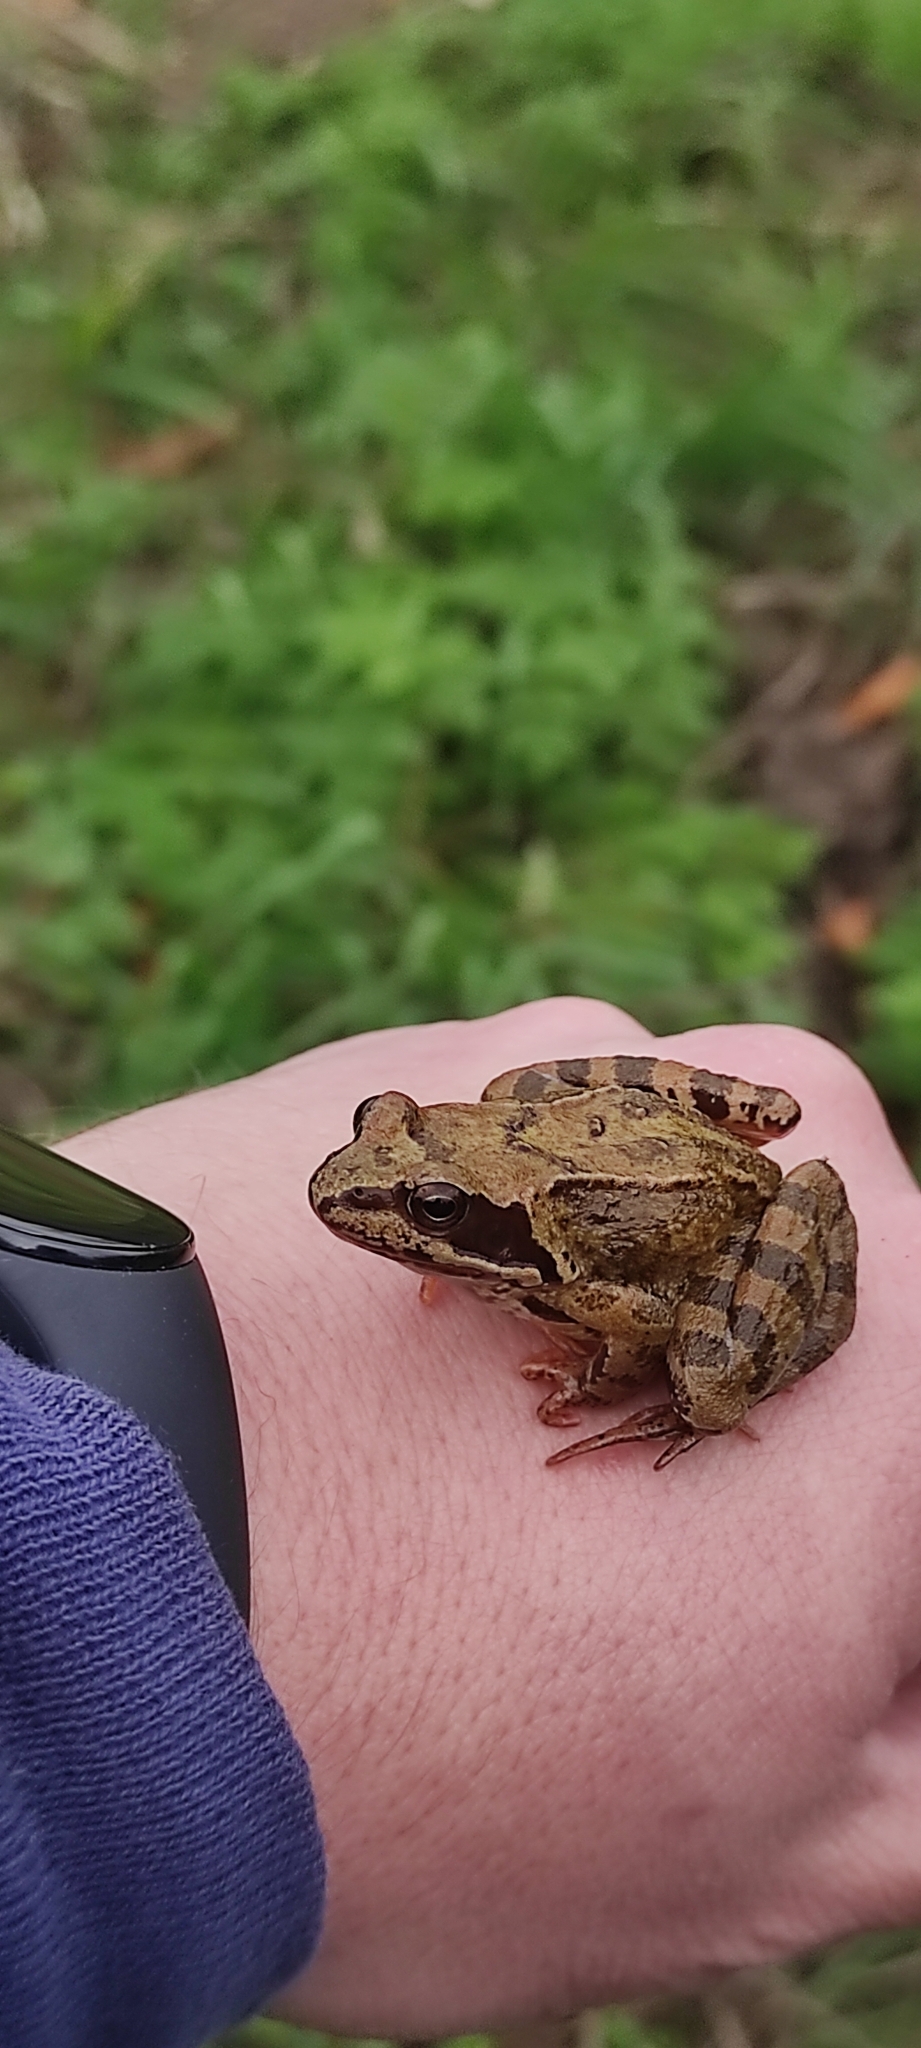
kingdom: Animalia
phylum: Chordata
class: Amphibia
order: Anura
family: Ranidae
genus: Rana
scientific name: Rana temporaria
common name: Common frog
